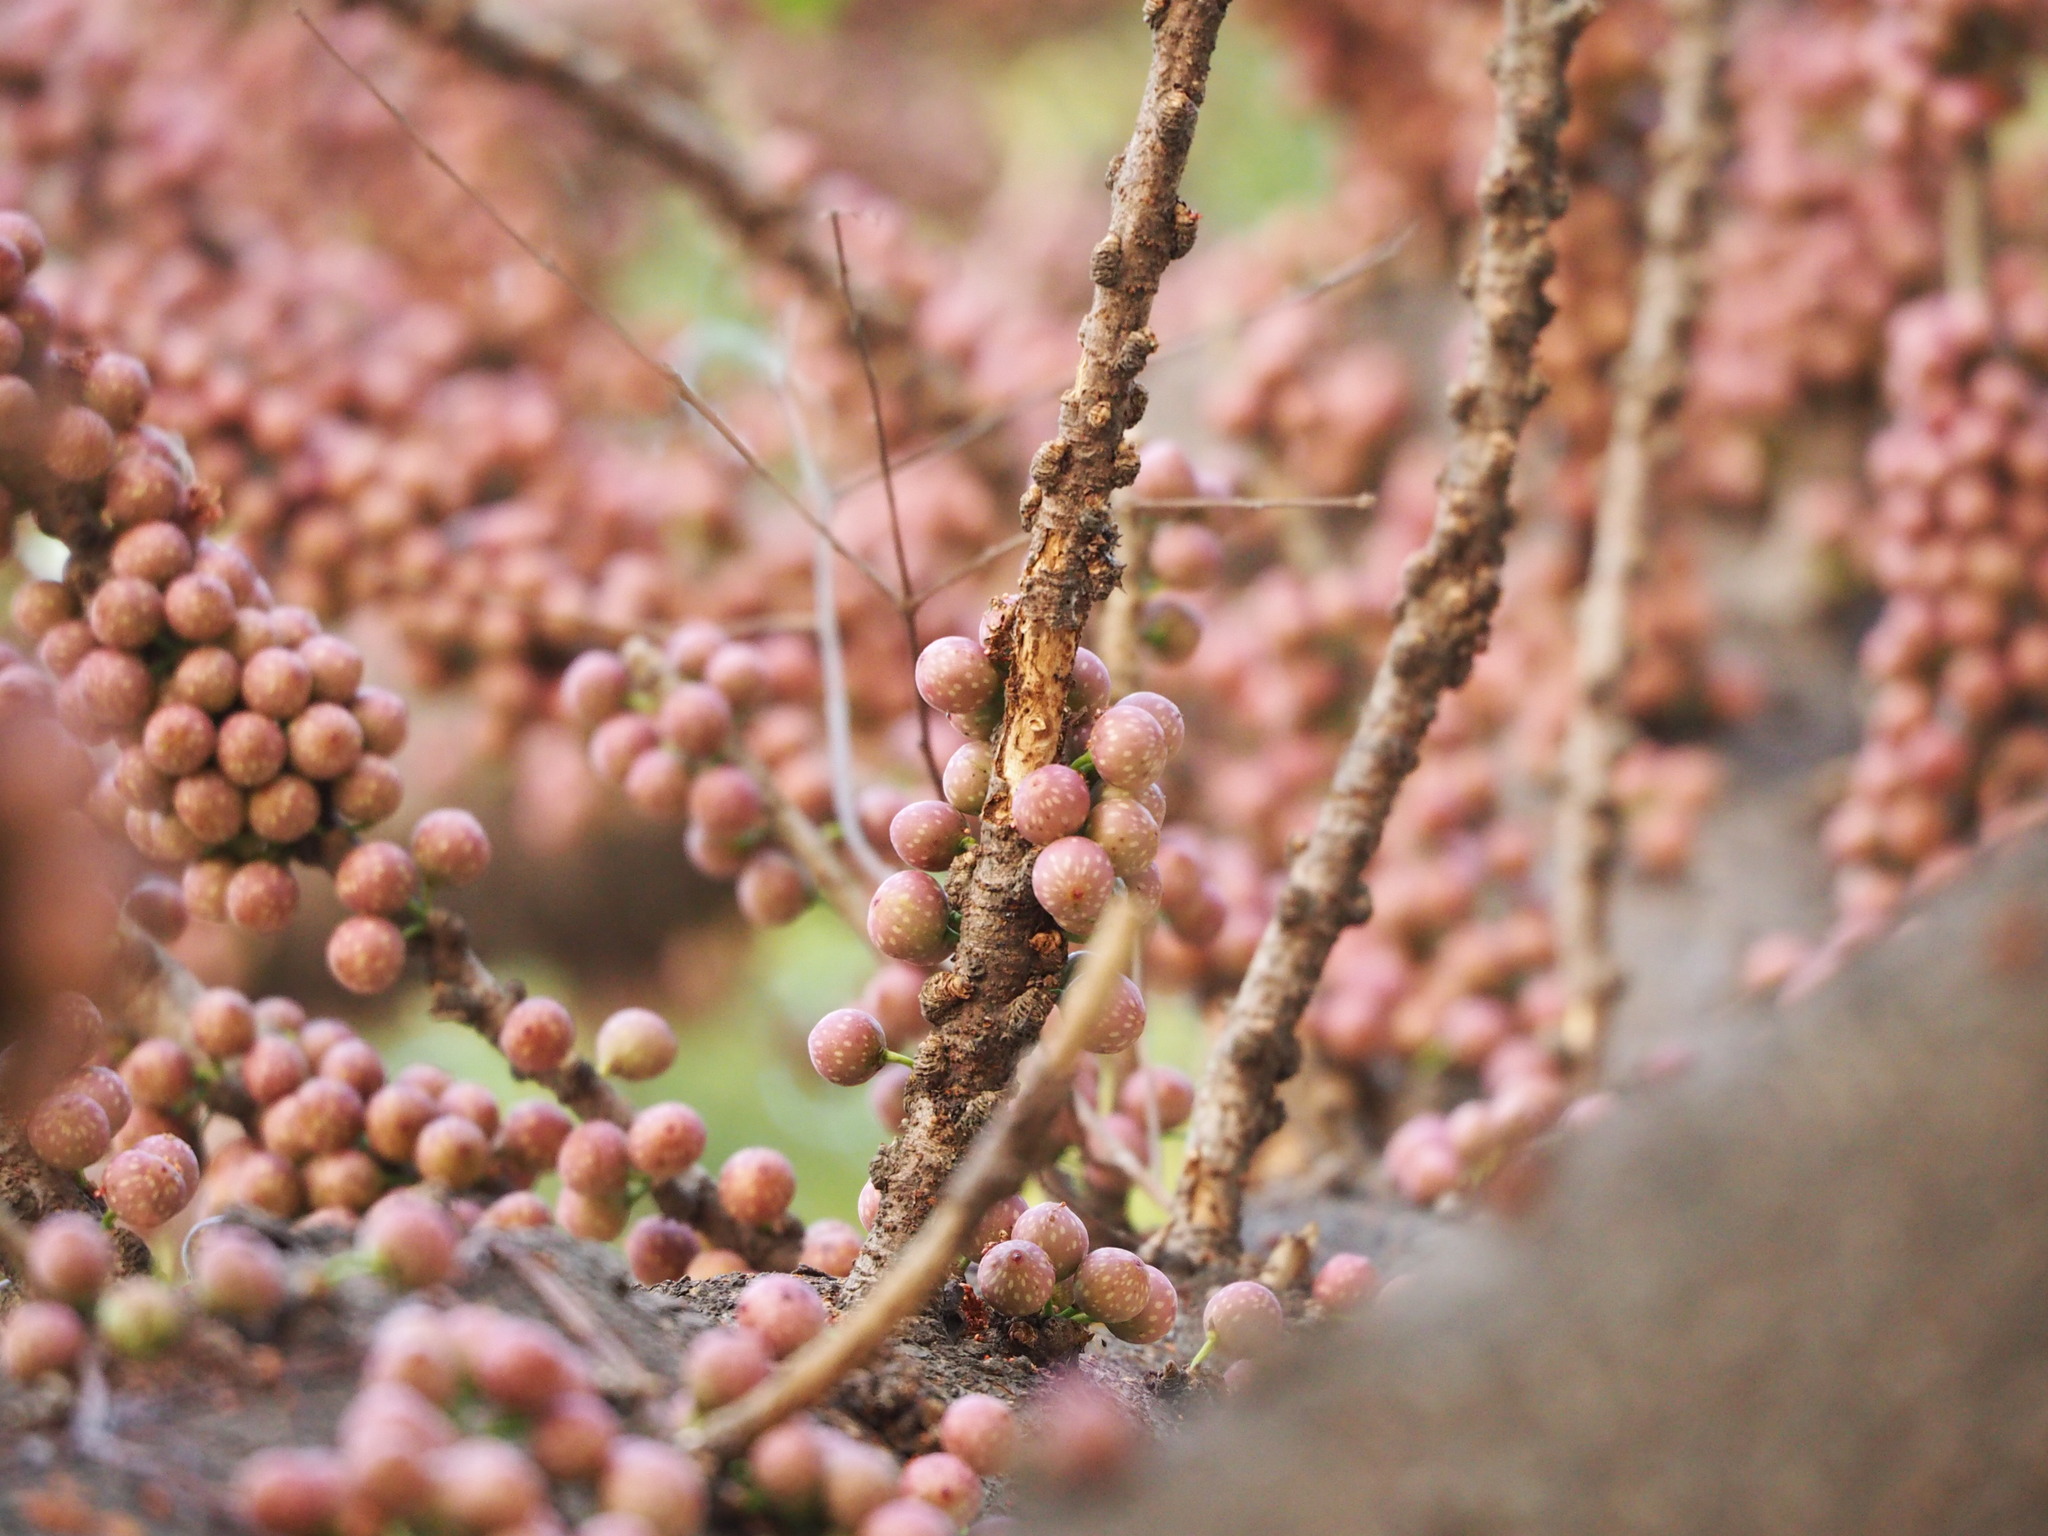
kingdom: Plantae
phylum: Tracheophyta
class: Magnoliopsida
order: Rosales
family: Moraceae
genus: Ficus
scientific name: Ficus subpisocarpa
